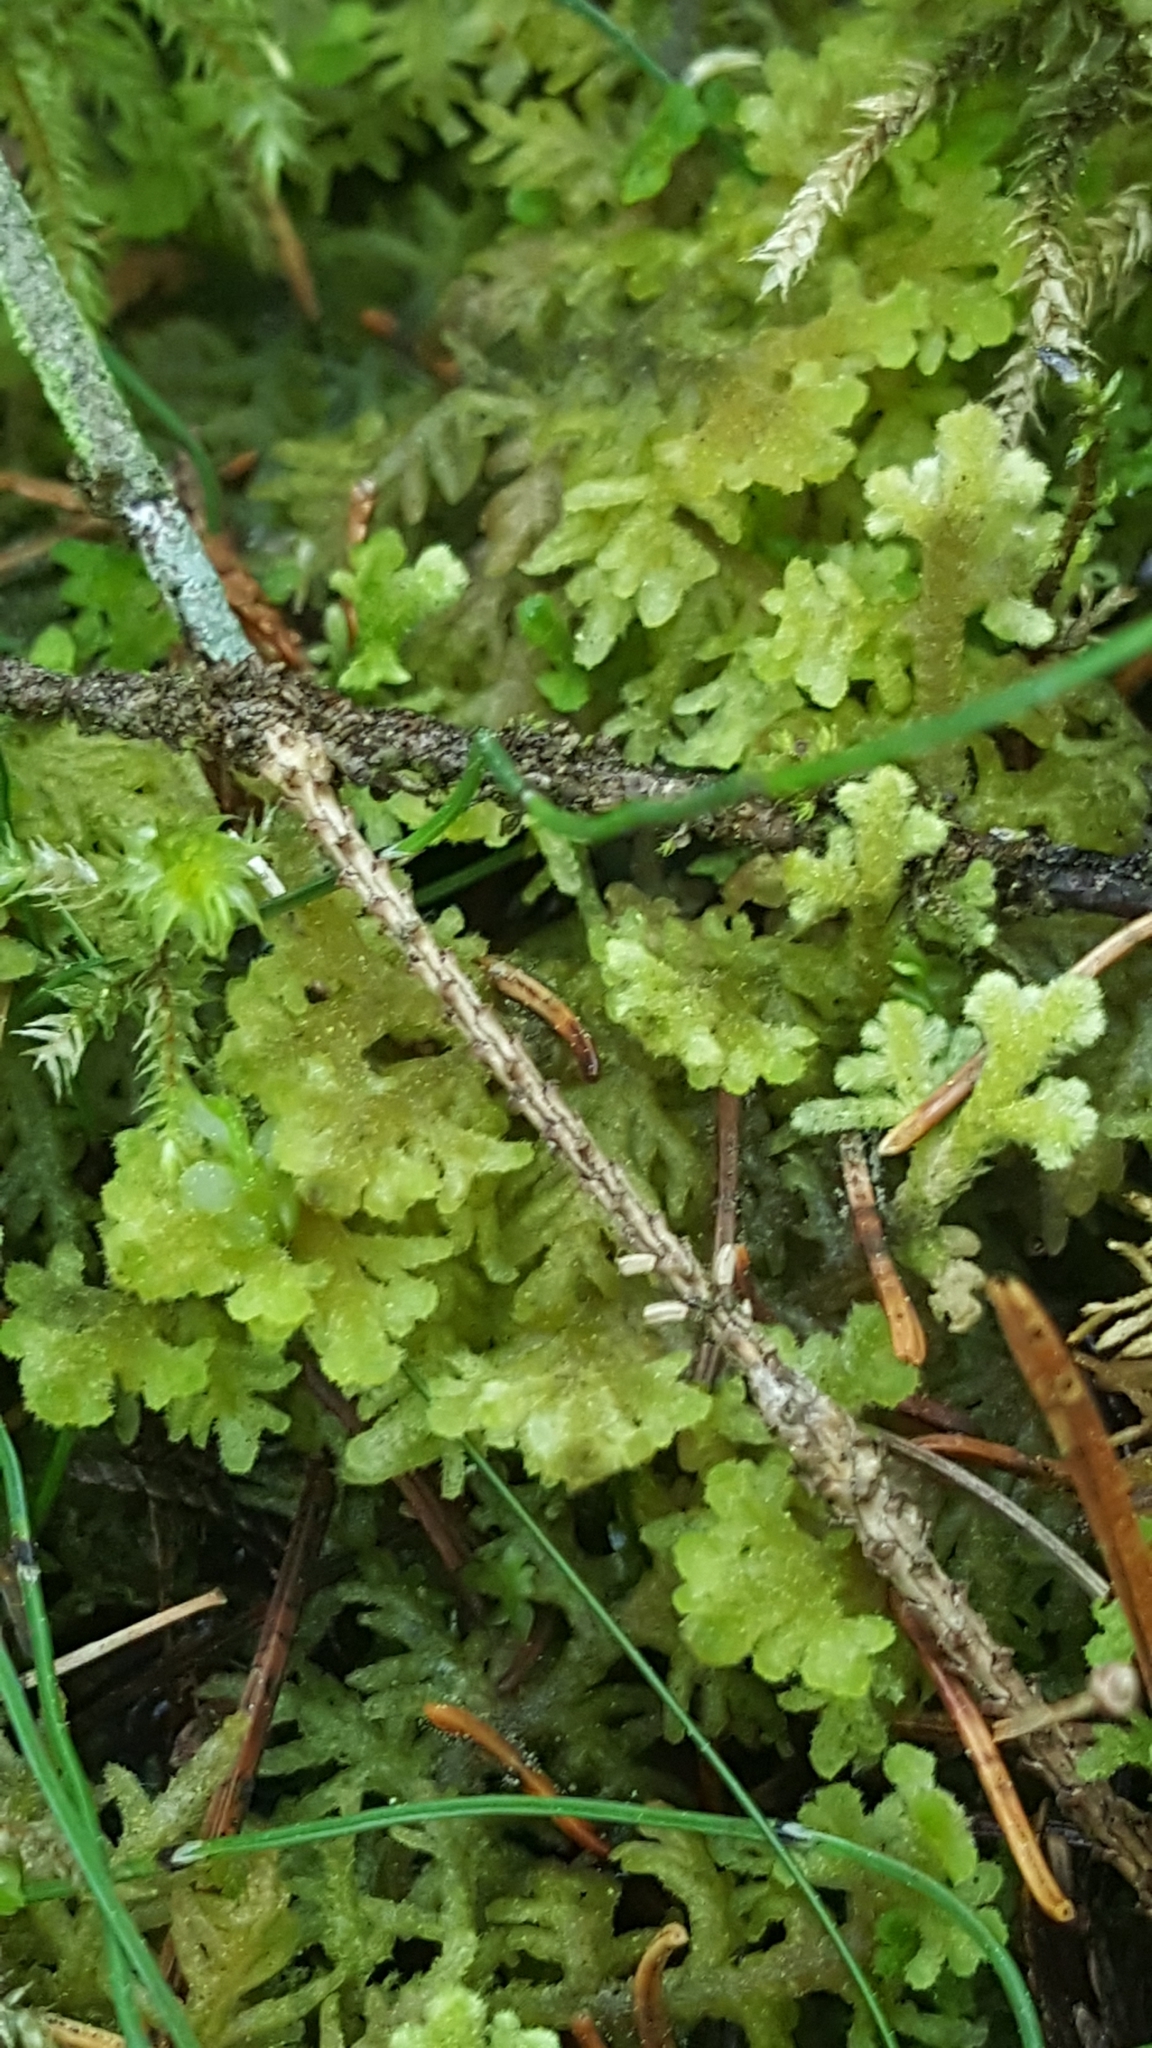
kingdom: Plantae
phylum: Marchantiophyta
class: Jungermanniopsida
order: Jungermanniales
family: Trichocoleaceae
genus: Trichocolea
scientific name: Trichocolea tomentella
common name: Woolly liverwort
